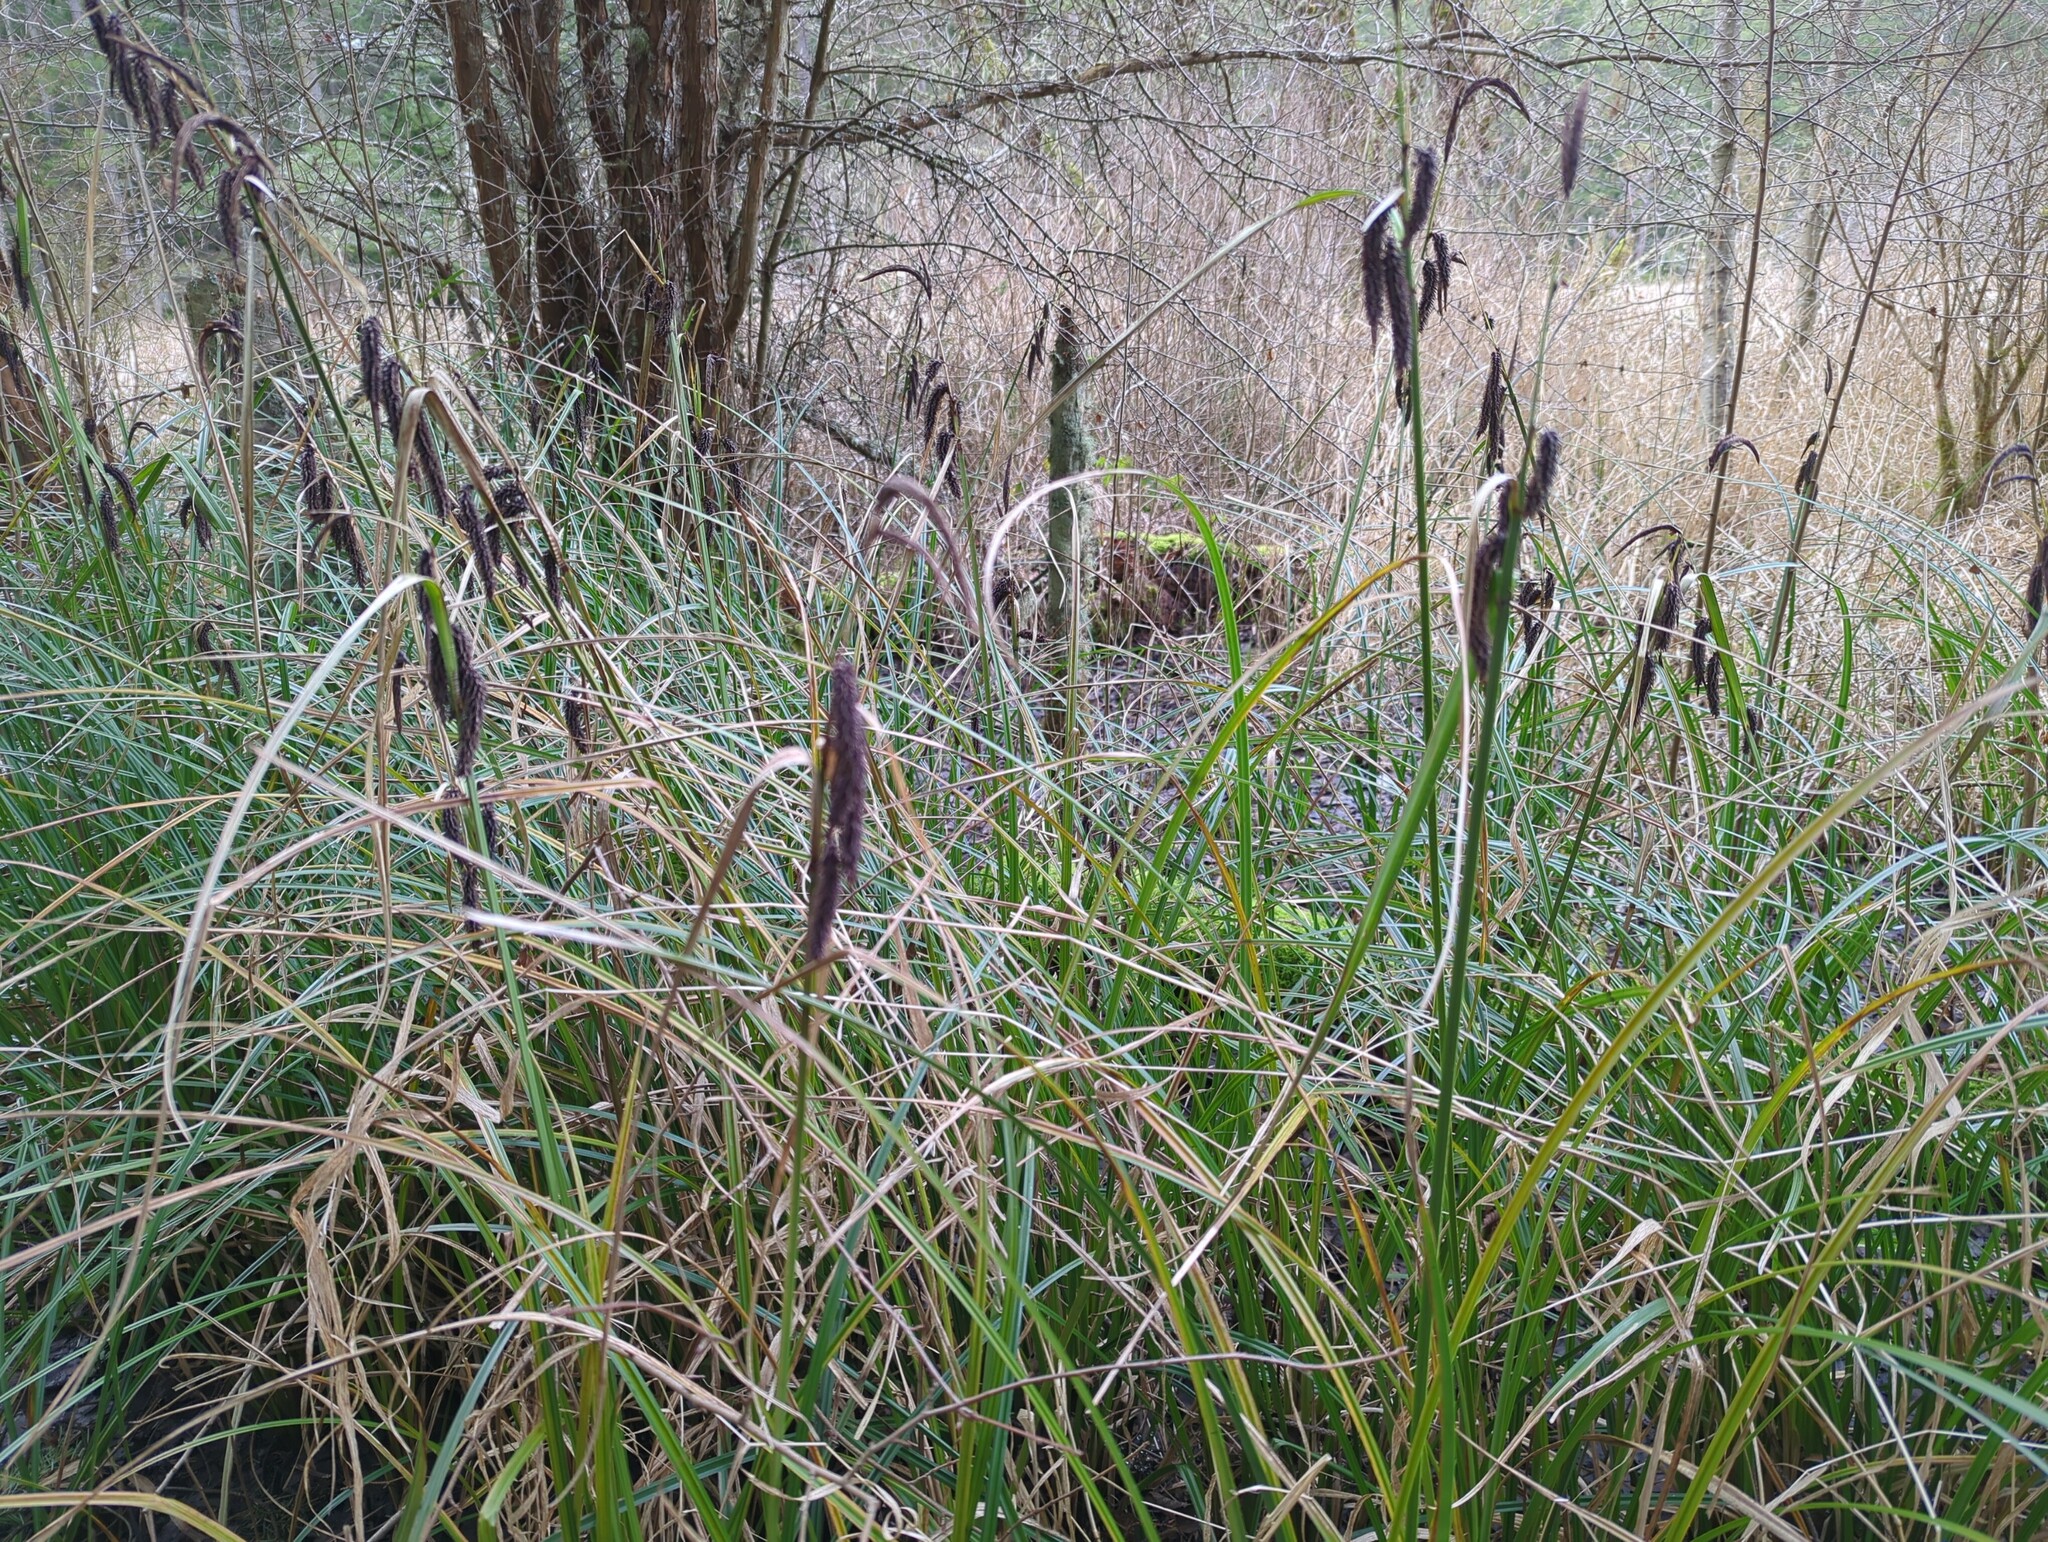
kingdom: Plantae
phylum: Tracheophyta
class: Liliopsida
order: Poales
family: Cyperaceae
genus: Carex
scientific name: Carex obnupta
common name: Slough sedge
